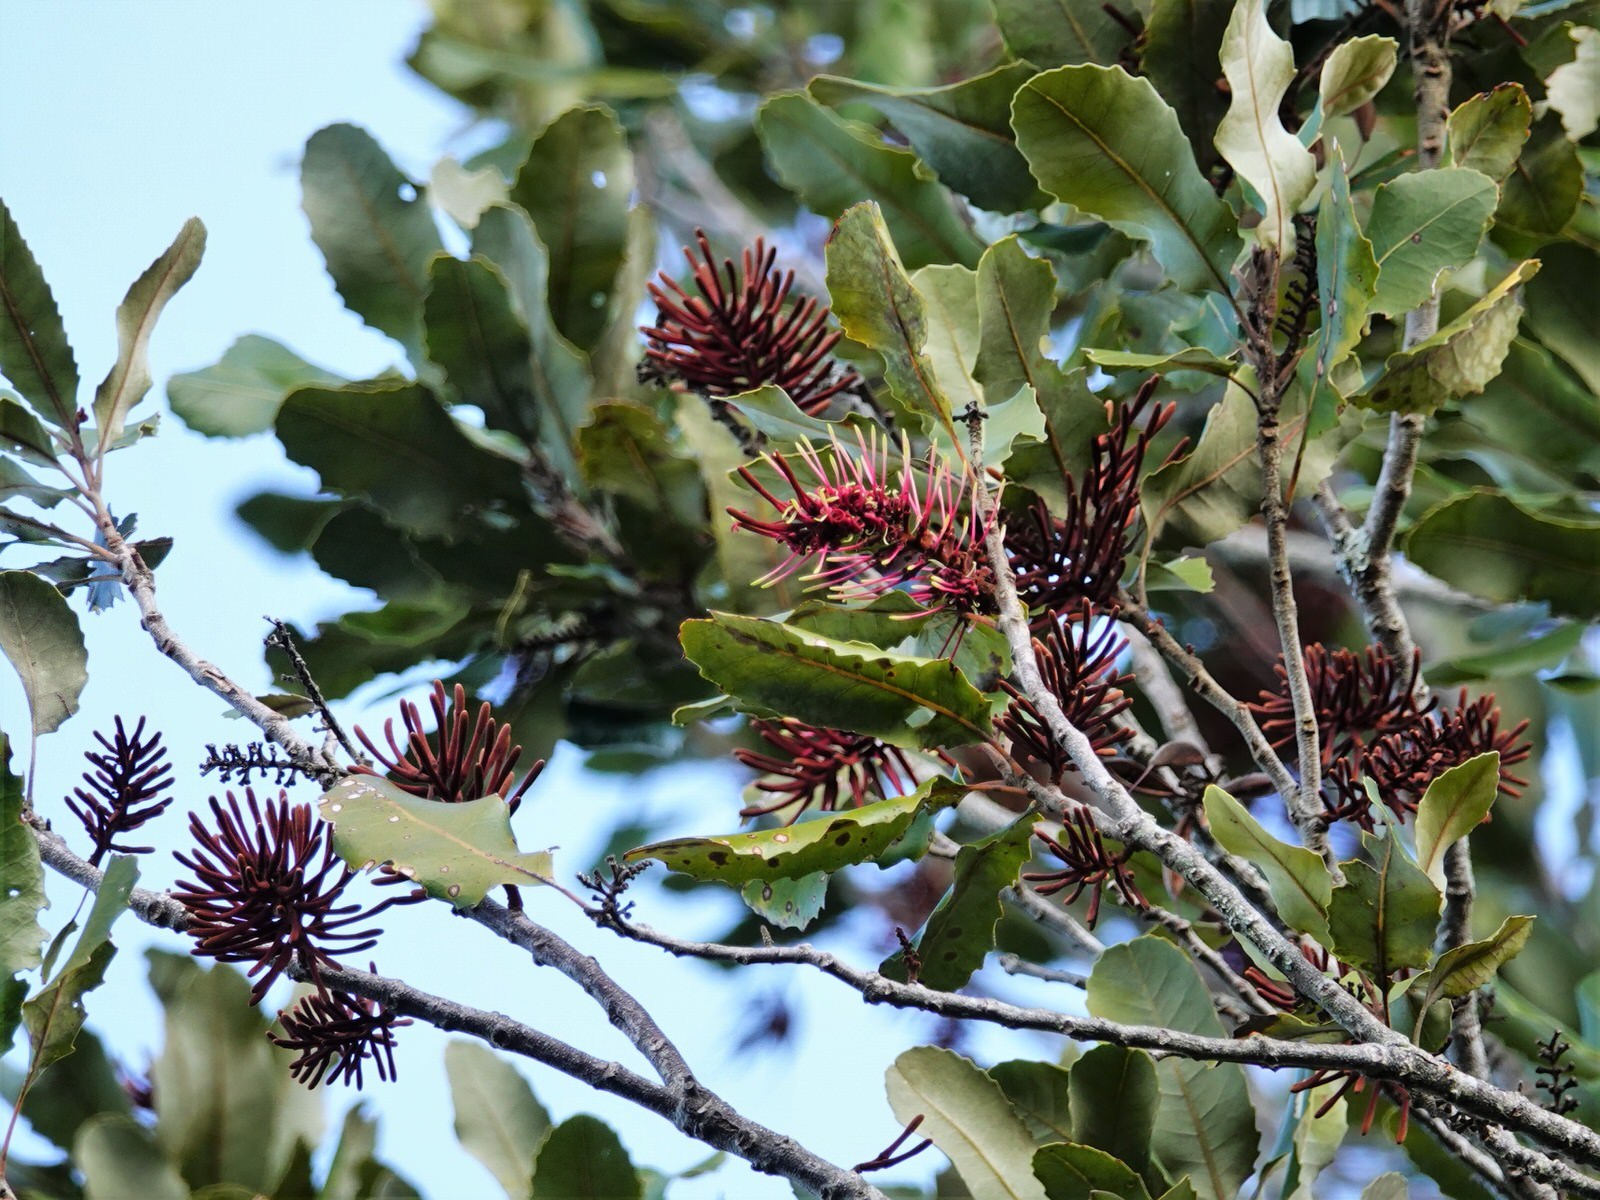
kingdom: Plantae
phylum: Tracheophyta
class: Magnoliopsida
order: Proteales
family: Proteaceae
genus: Knightia
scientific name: Knightia excelsa
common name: New zealand-honeysuckle
